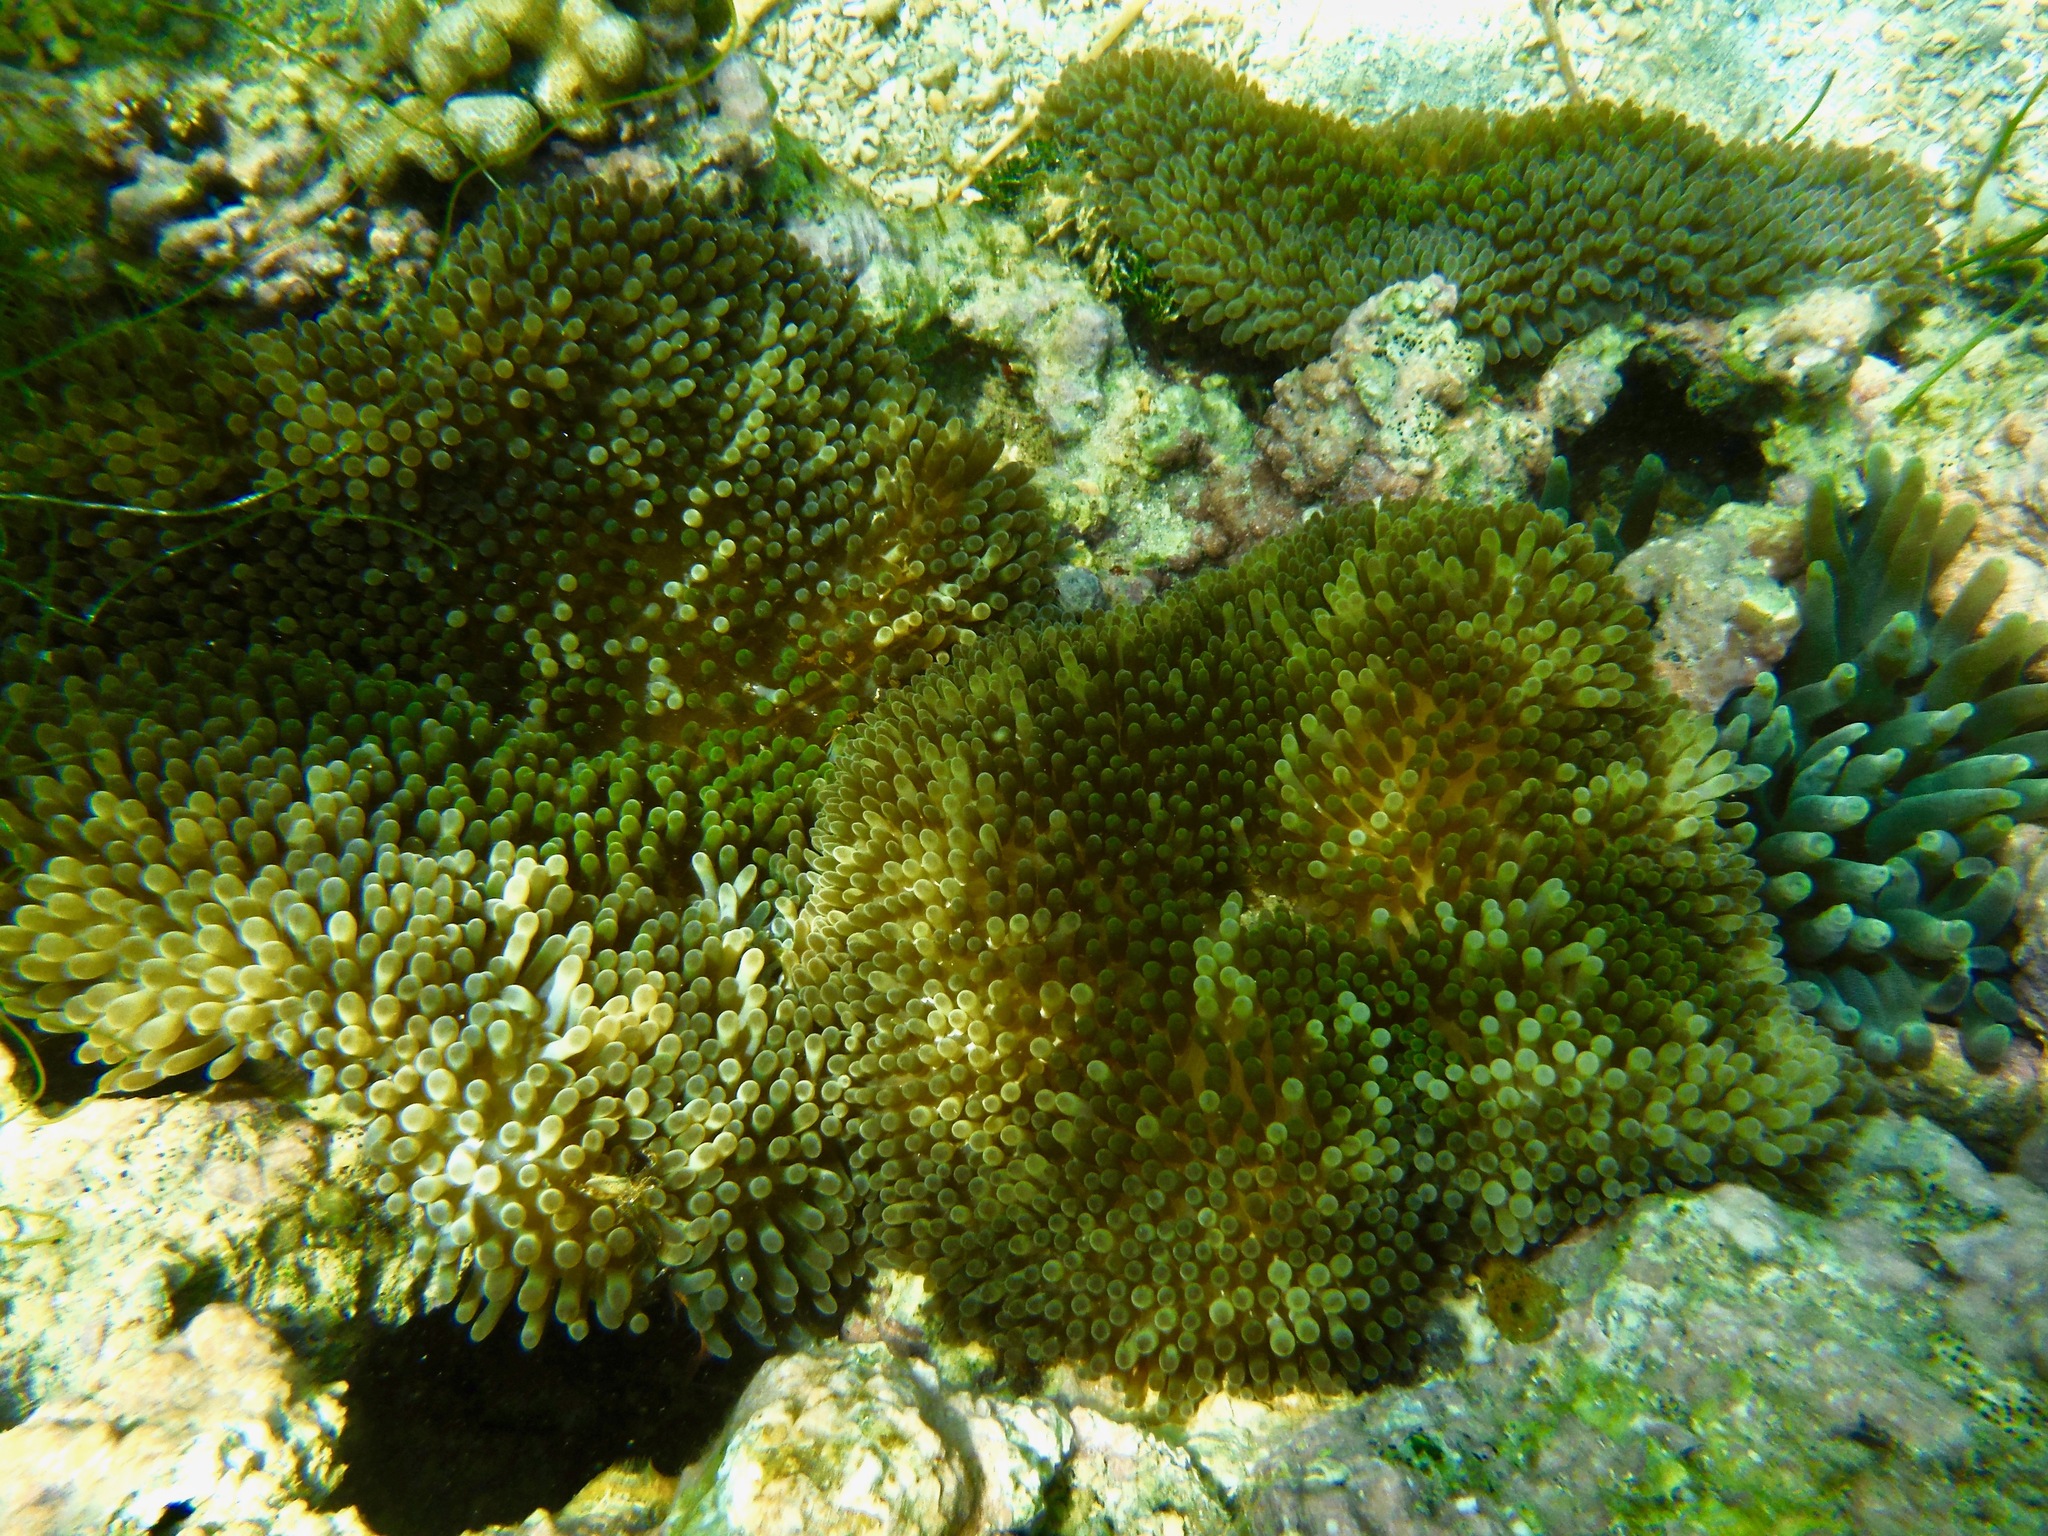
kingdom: Animalia
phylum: Cnidaria
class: Anthozoa
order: Actiniaria
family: Stichodactylidae
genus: Stichodactyla
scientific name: Stichodactyla helianthus
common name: Sun anemone
